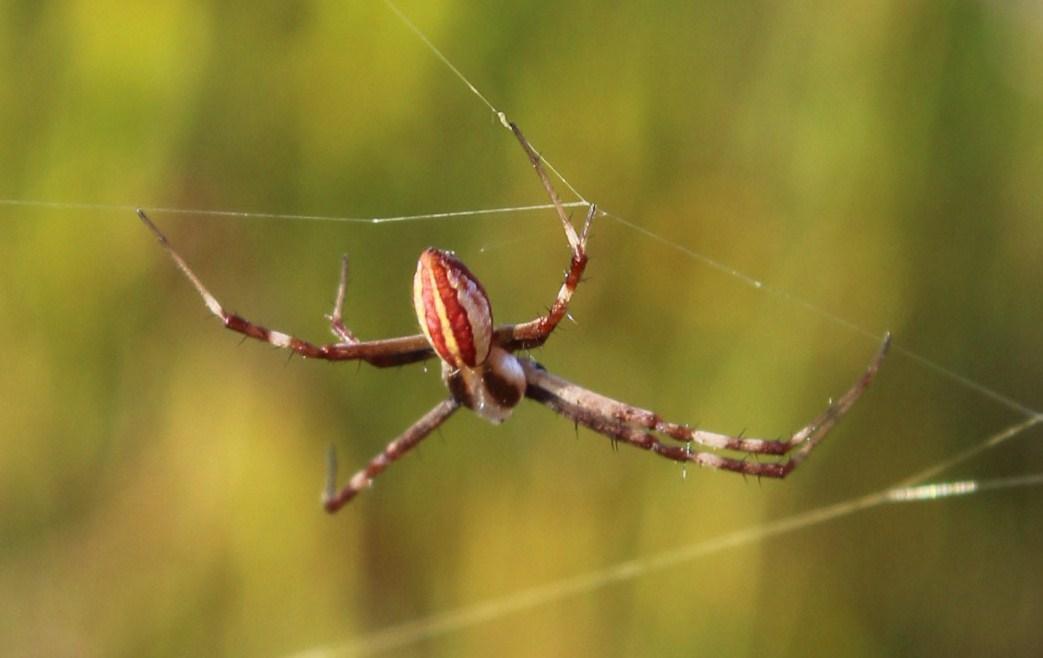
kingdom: Animalia
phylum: Arthropoda
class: Arachnida
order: Araneae
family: Araneidae
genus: Argiope
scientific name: Argiope australis
